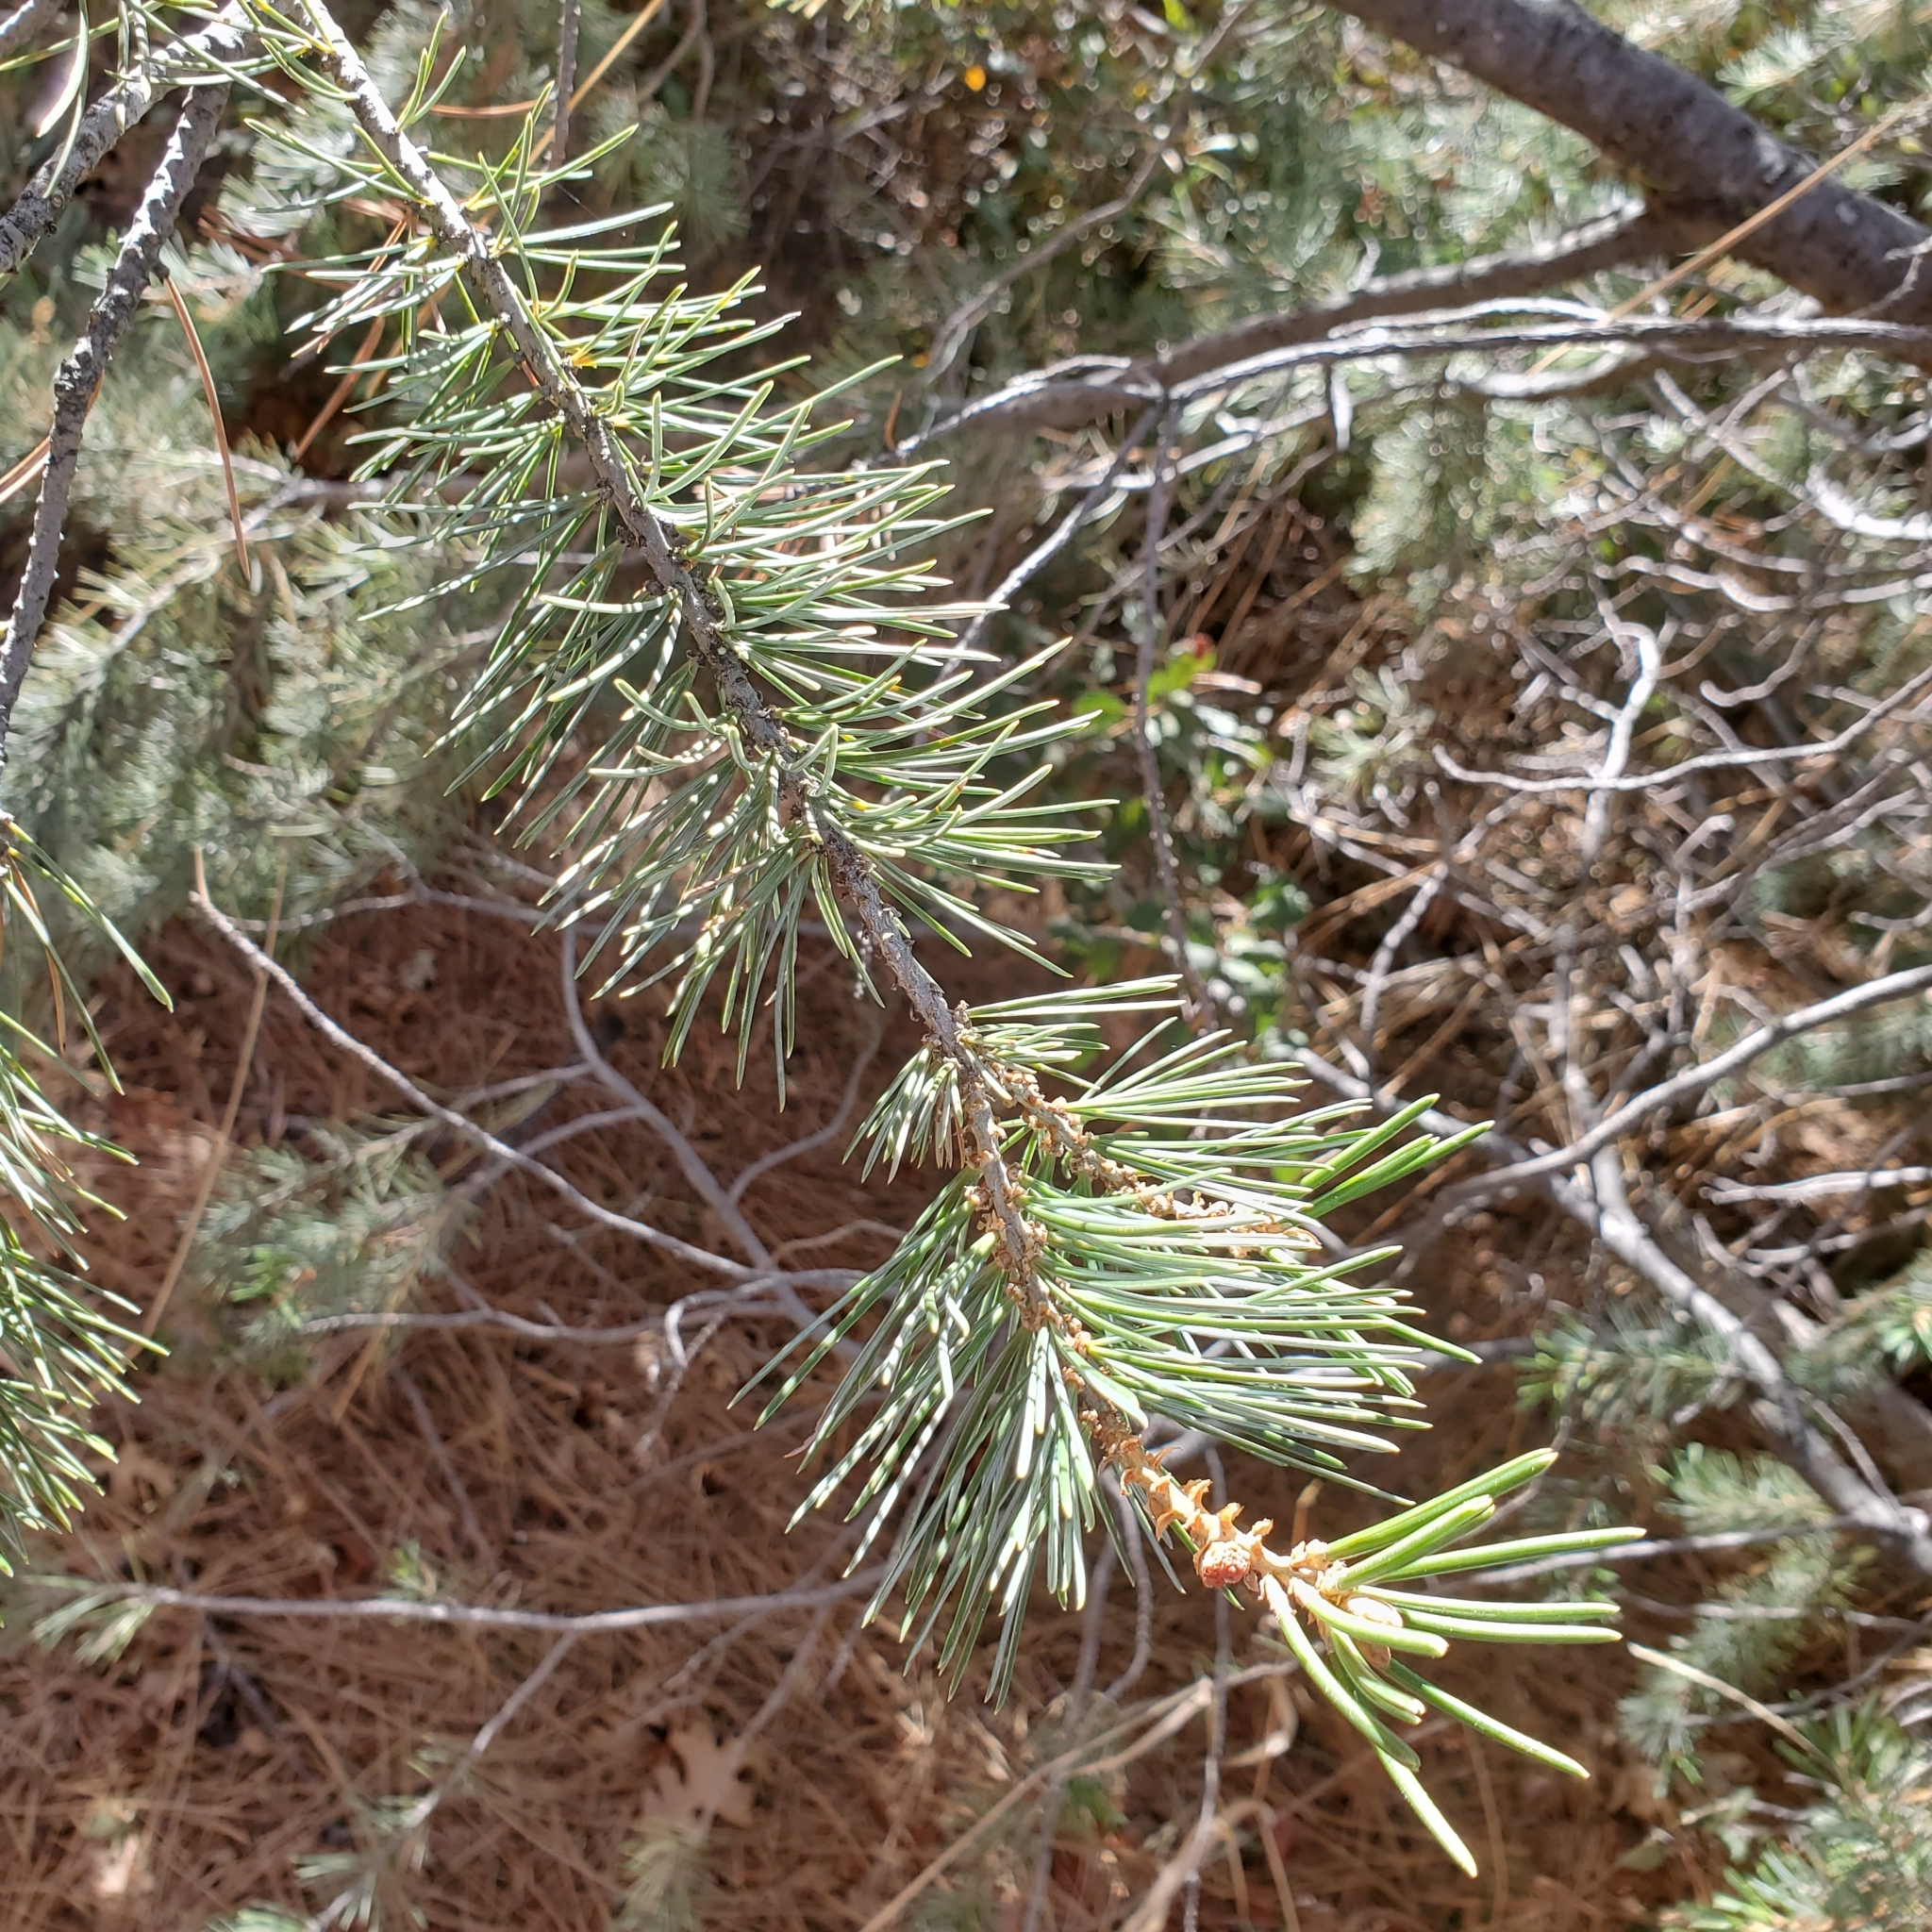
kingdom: Plantae
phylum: Tracheophyta
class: Pinopsida
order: Pinales
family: Pinaceae
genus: Pinus
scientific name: Pinus quadrifolia
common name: Parry pinyon
